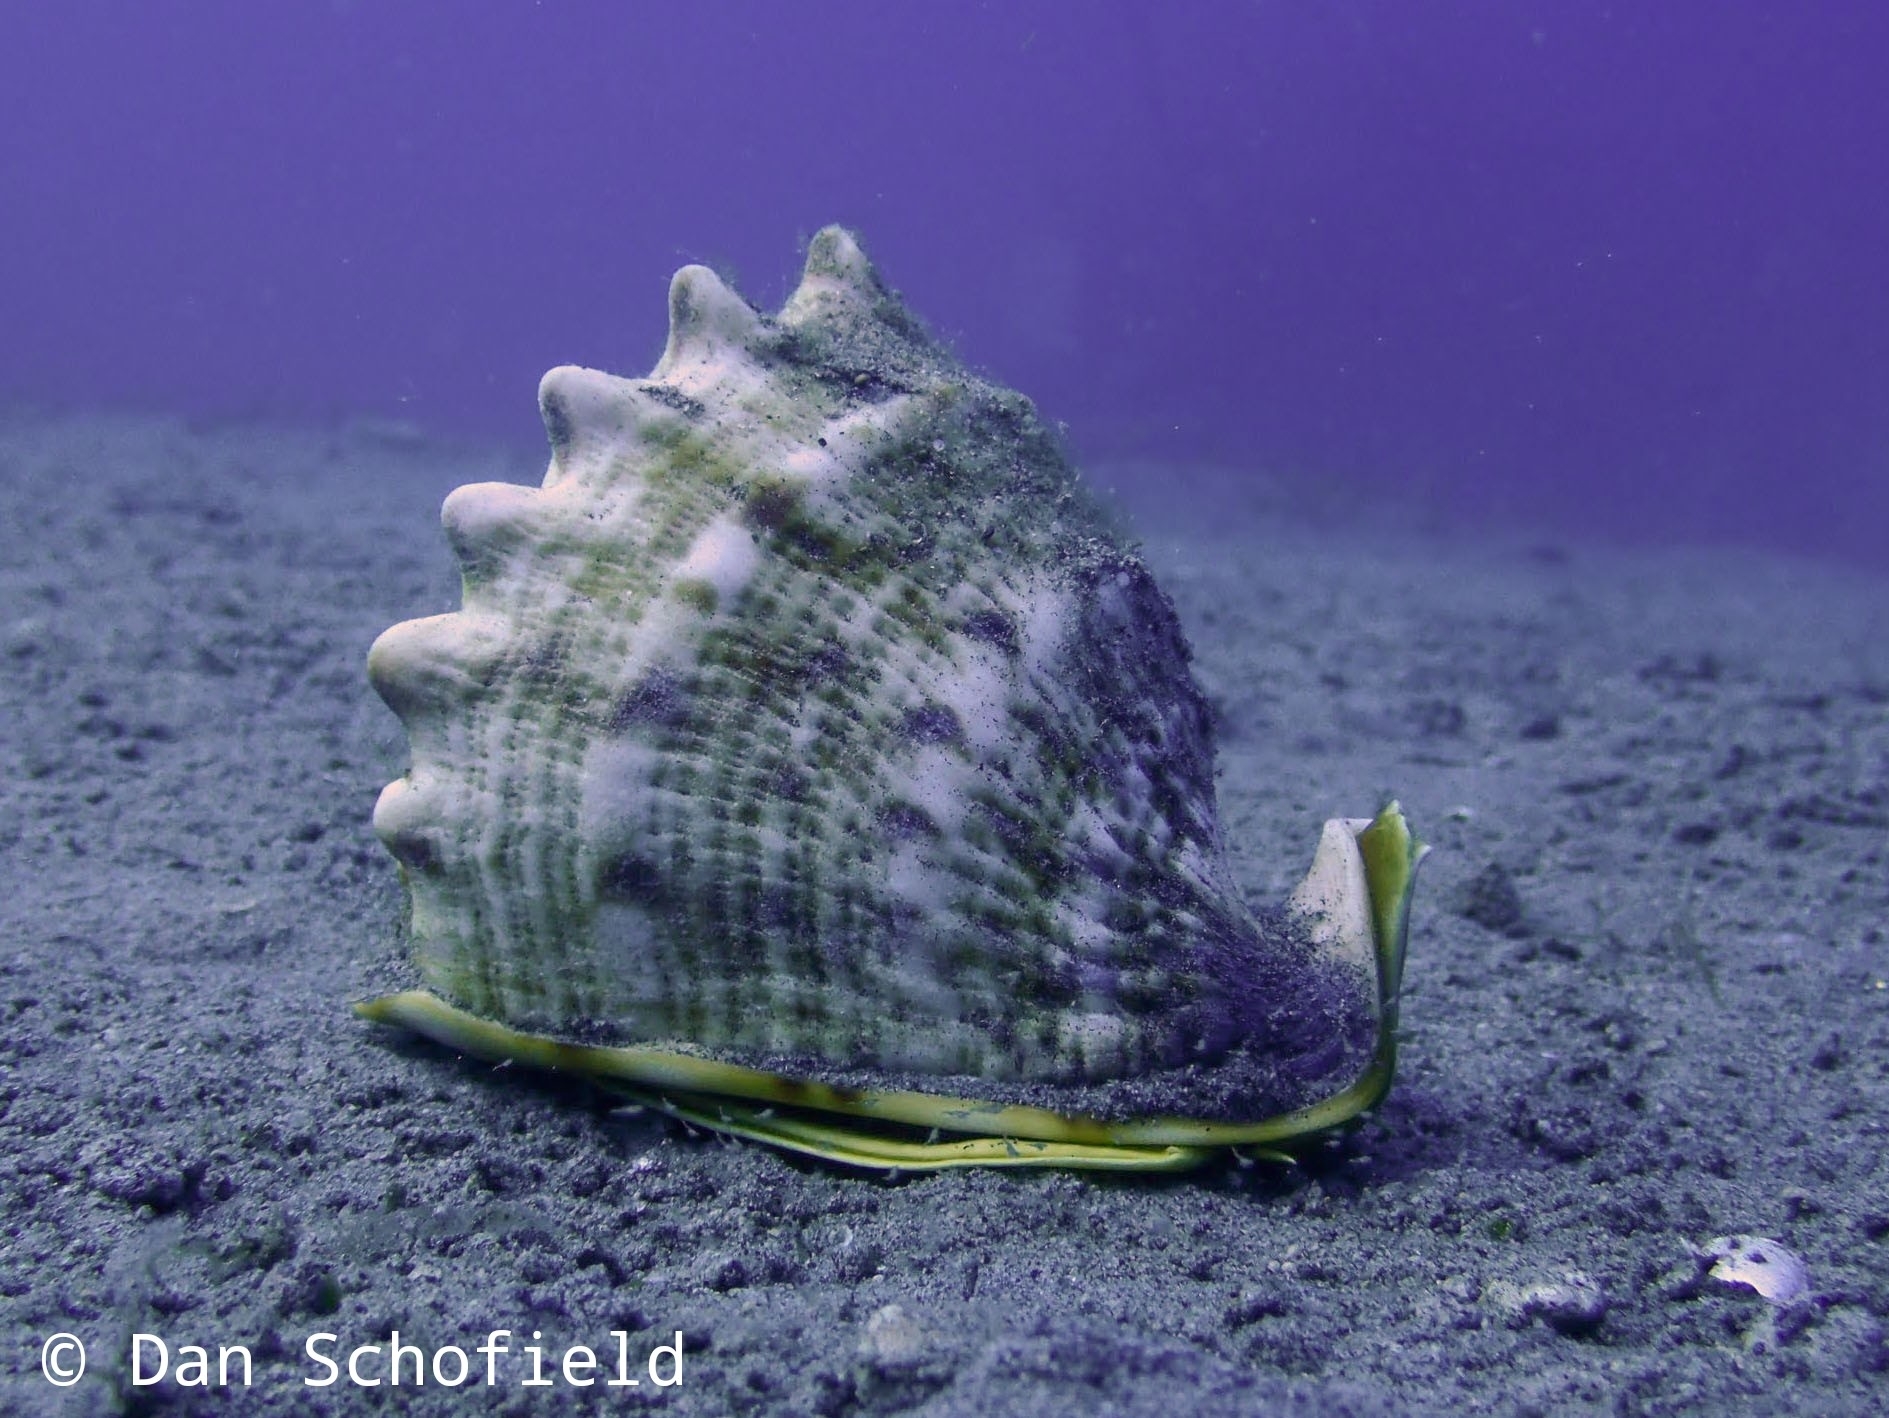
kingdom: Animalia
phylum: Mollusca
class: Gastropoda
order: Littorinimorpha
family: Cassidae
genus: Cassis
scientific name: Cassis cornuta
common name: Giant helmet
